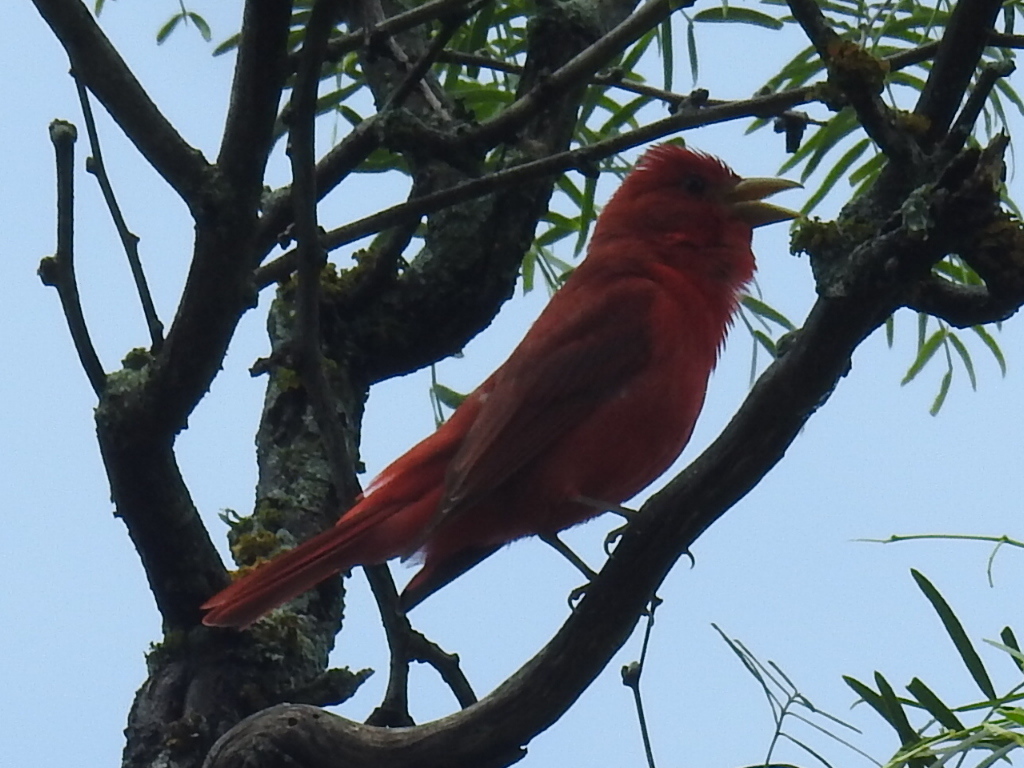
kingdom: Animalia
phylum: Chordata
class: Aves
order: Passeriformes
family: Cardinalidae
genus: Piranga
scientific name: Piranga rubra
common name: Summer tanager
